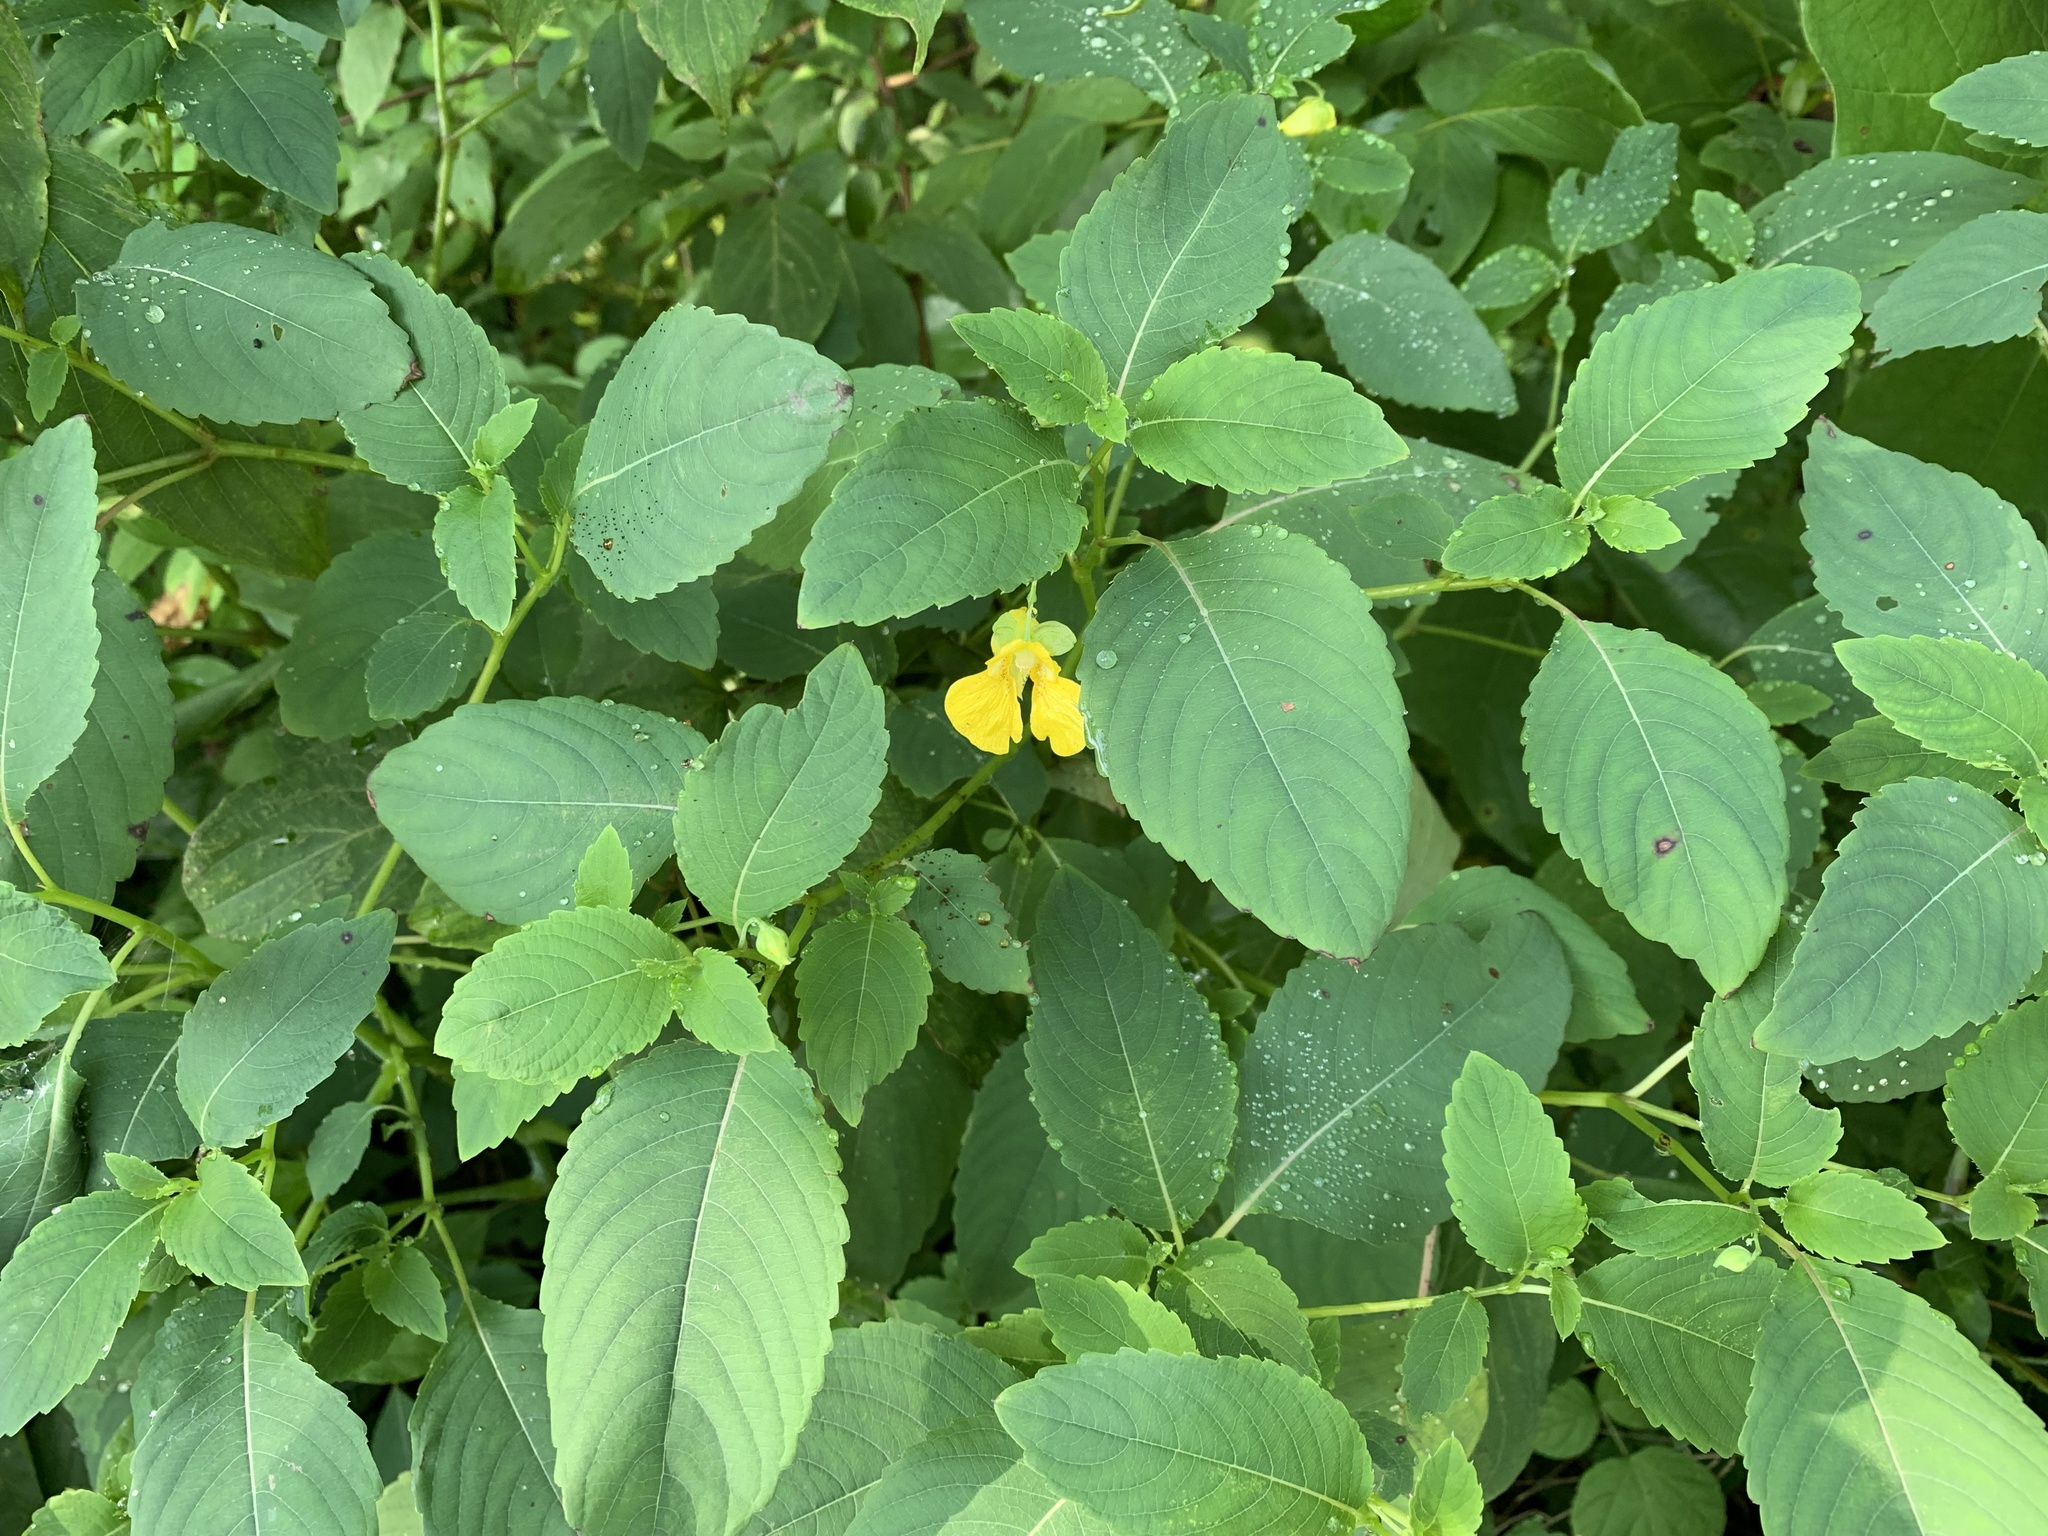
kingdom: Plantae
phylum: Tracheophyta
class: Magnoliopsida
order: Ericales
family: Balsaminaceae
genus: Impatiens
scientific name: Impatiens pallida
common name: Pale snapweed
